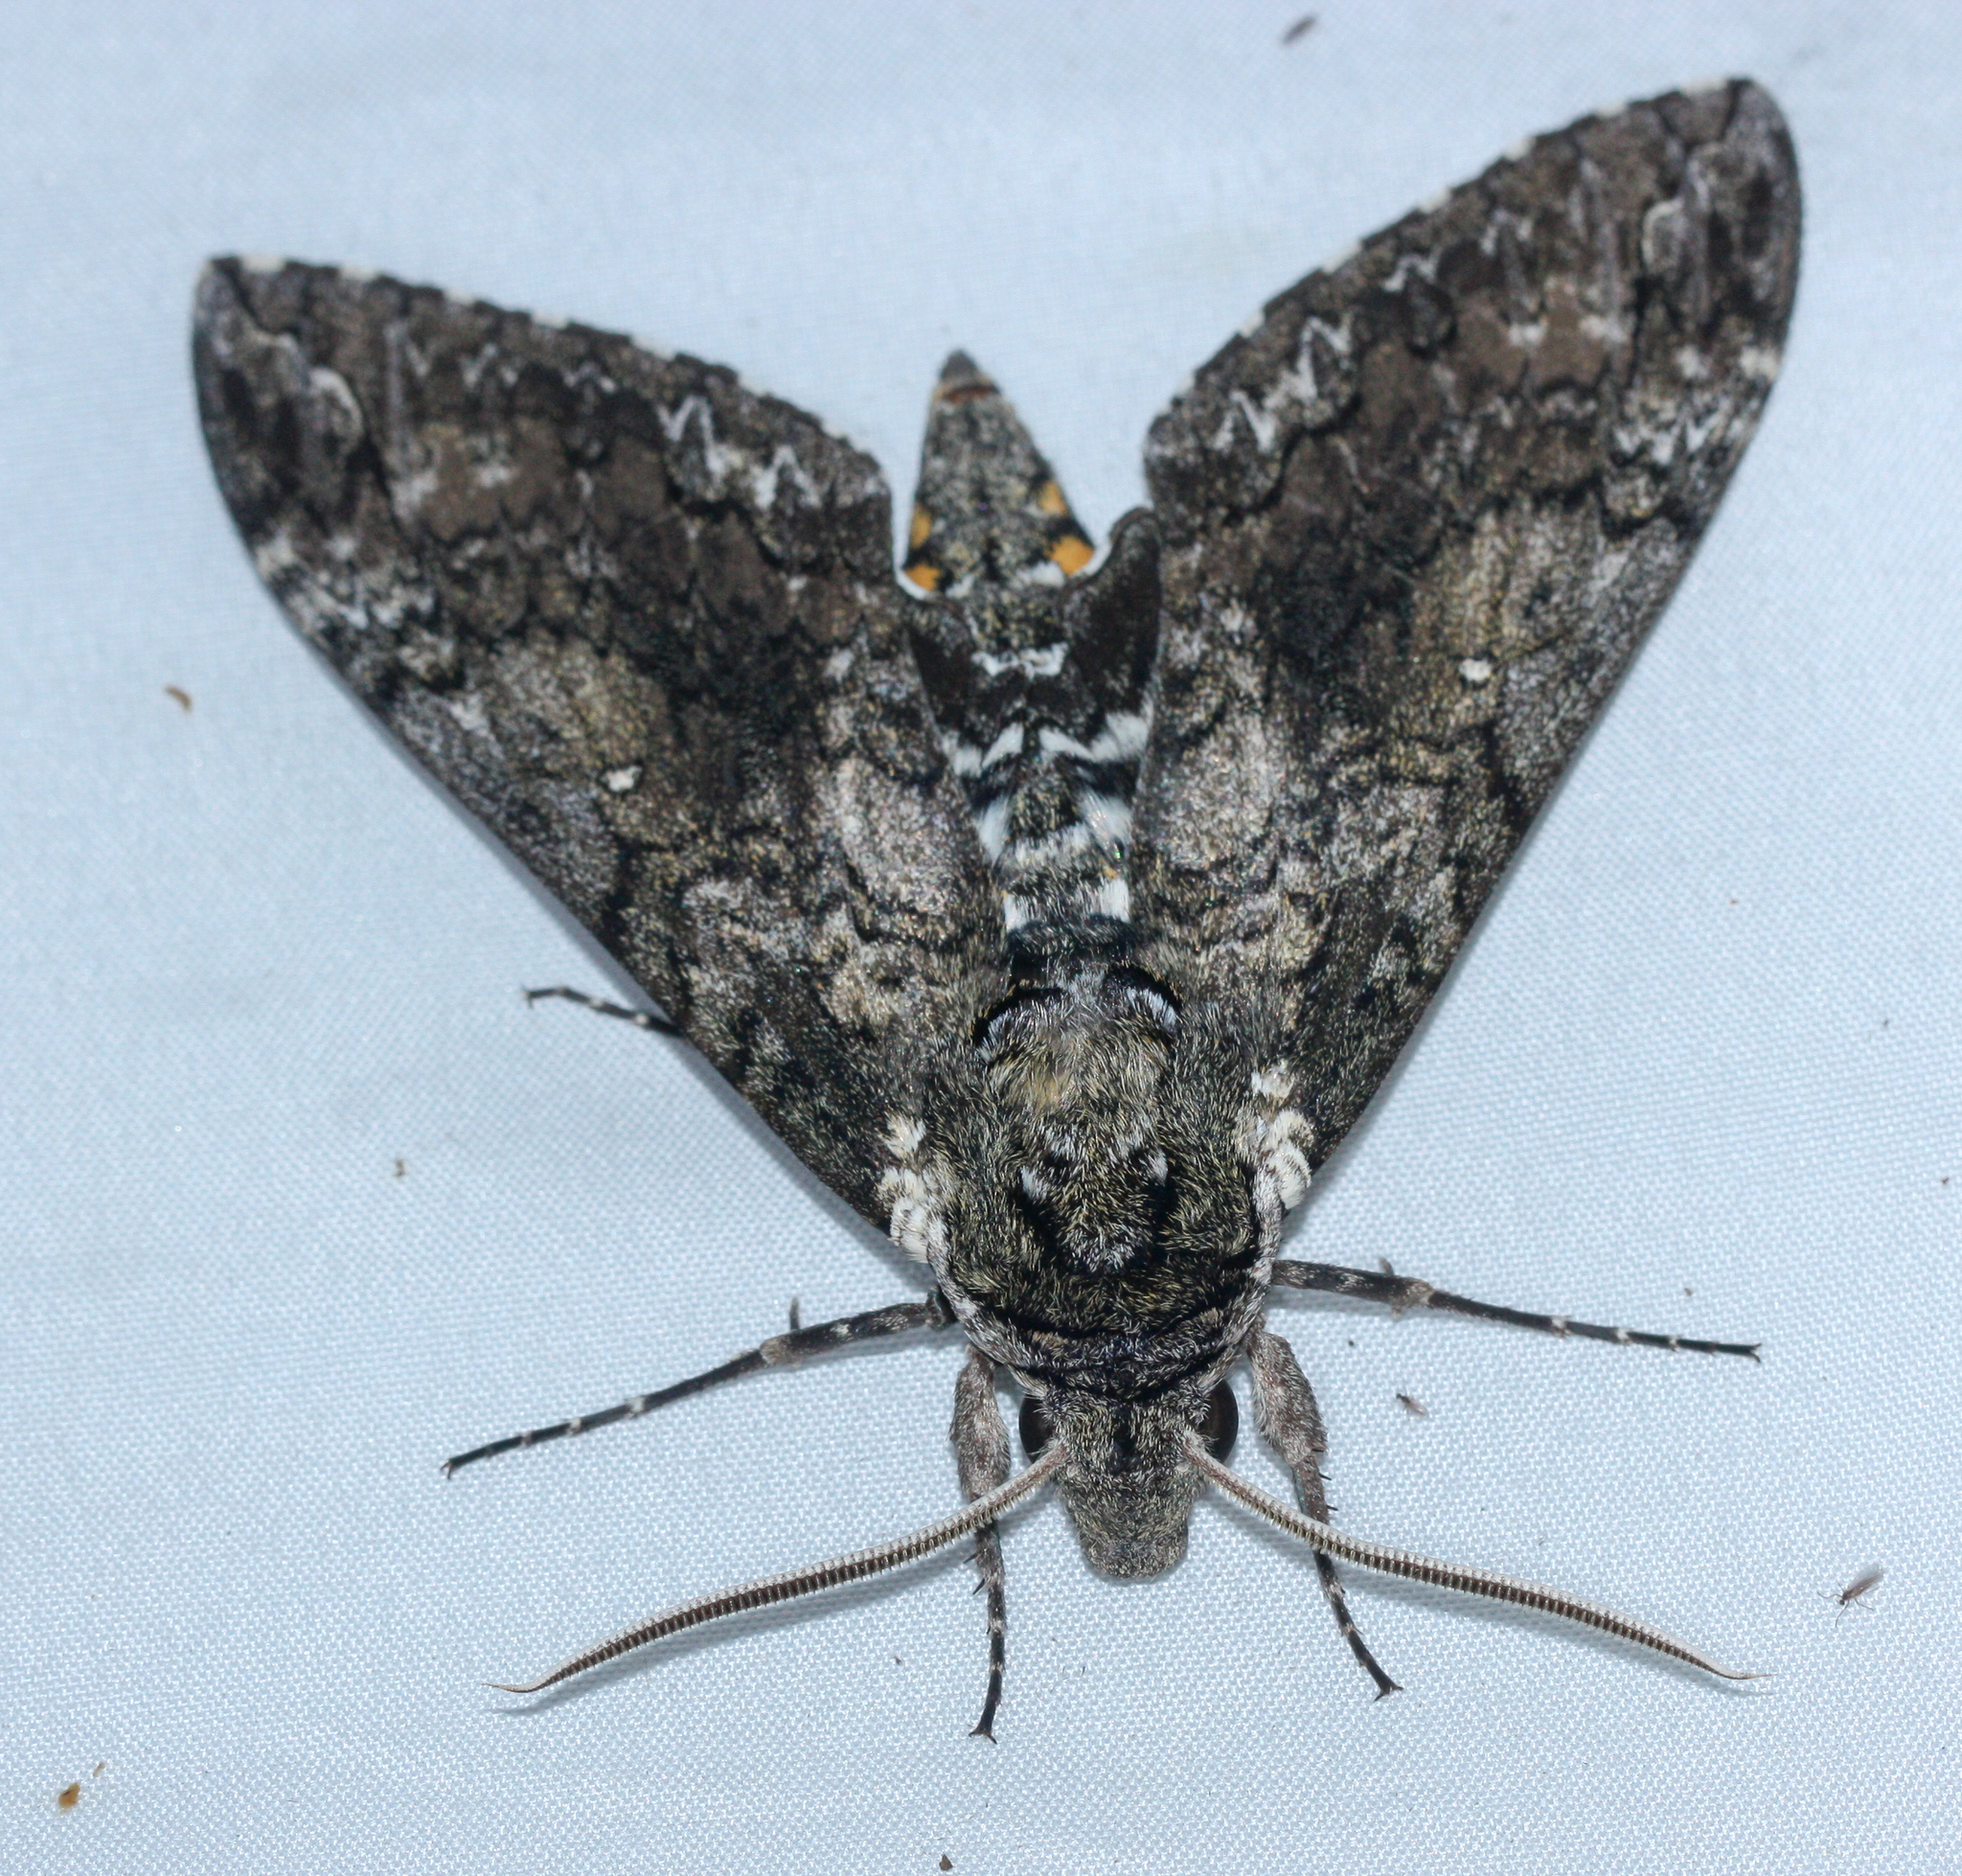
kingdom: Animalia
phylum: Arthropoda
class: Insecta
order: Lepidoptera
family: Sphingidae
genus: Manduca
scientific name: Manduca sexta
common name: Carolina sphinx
